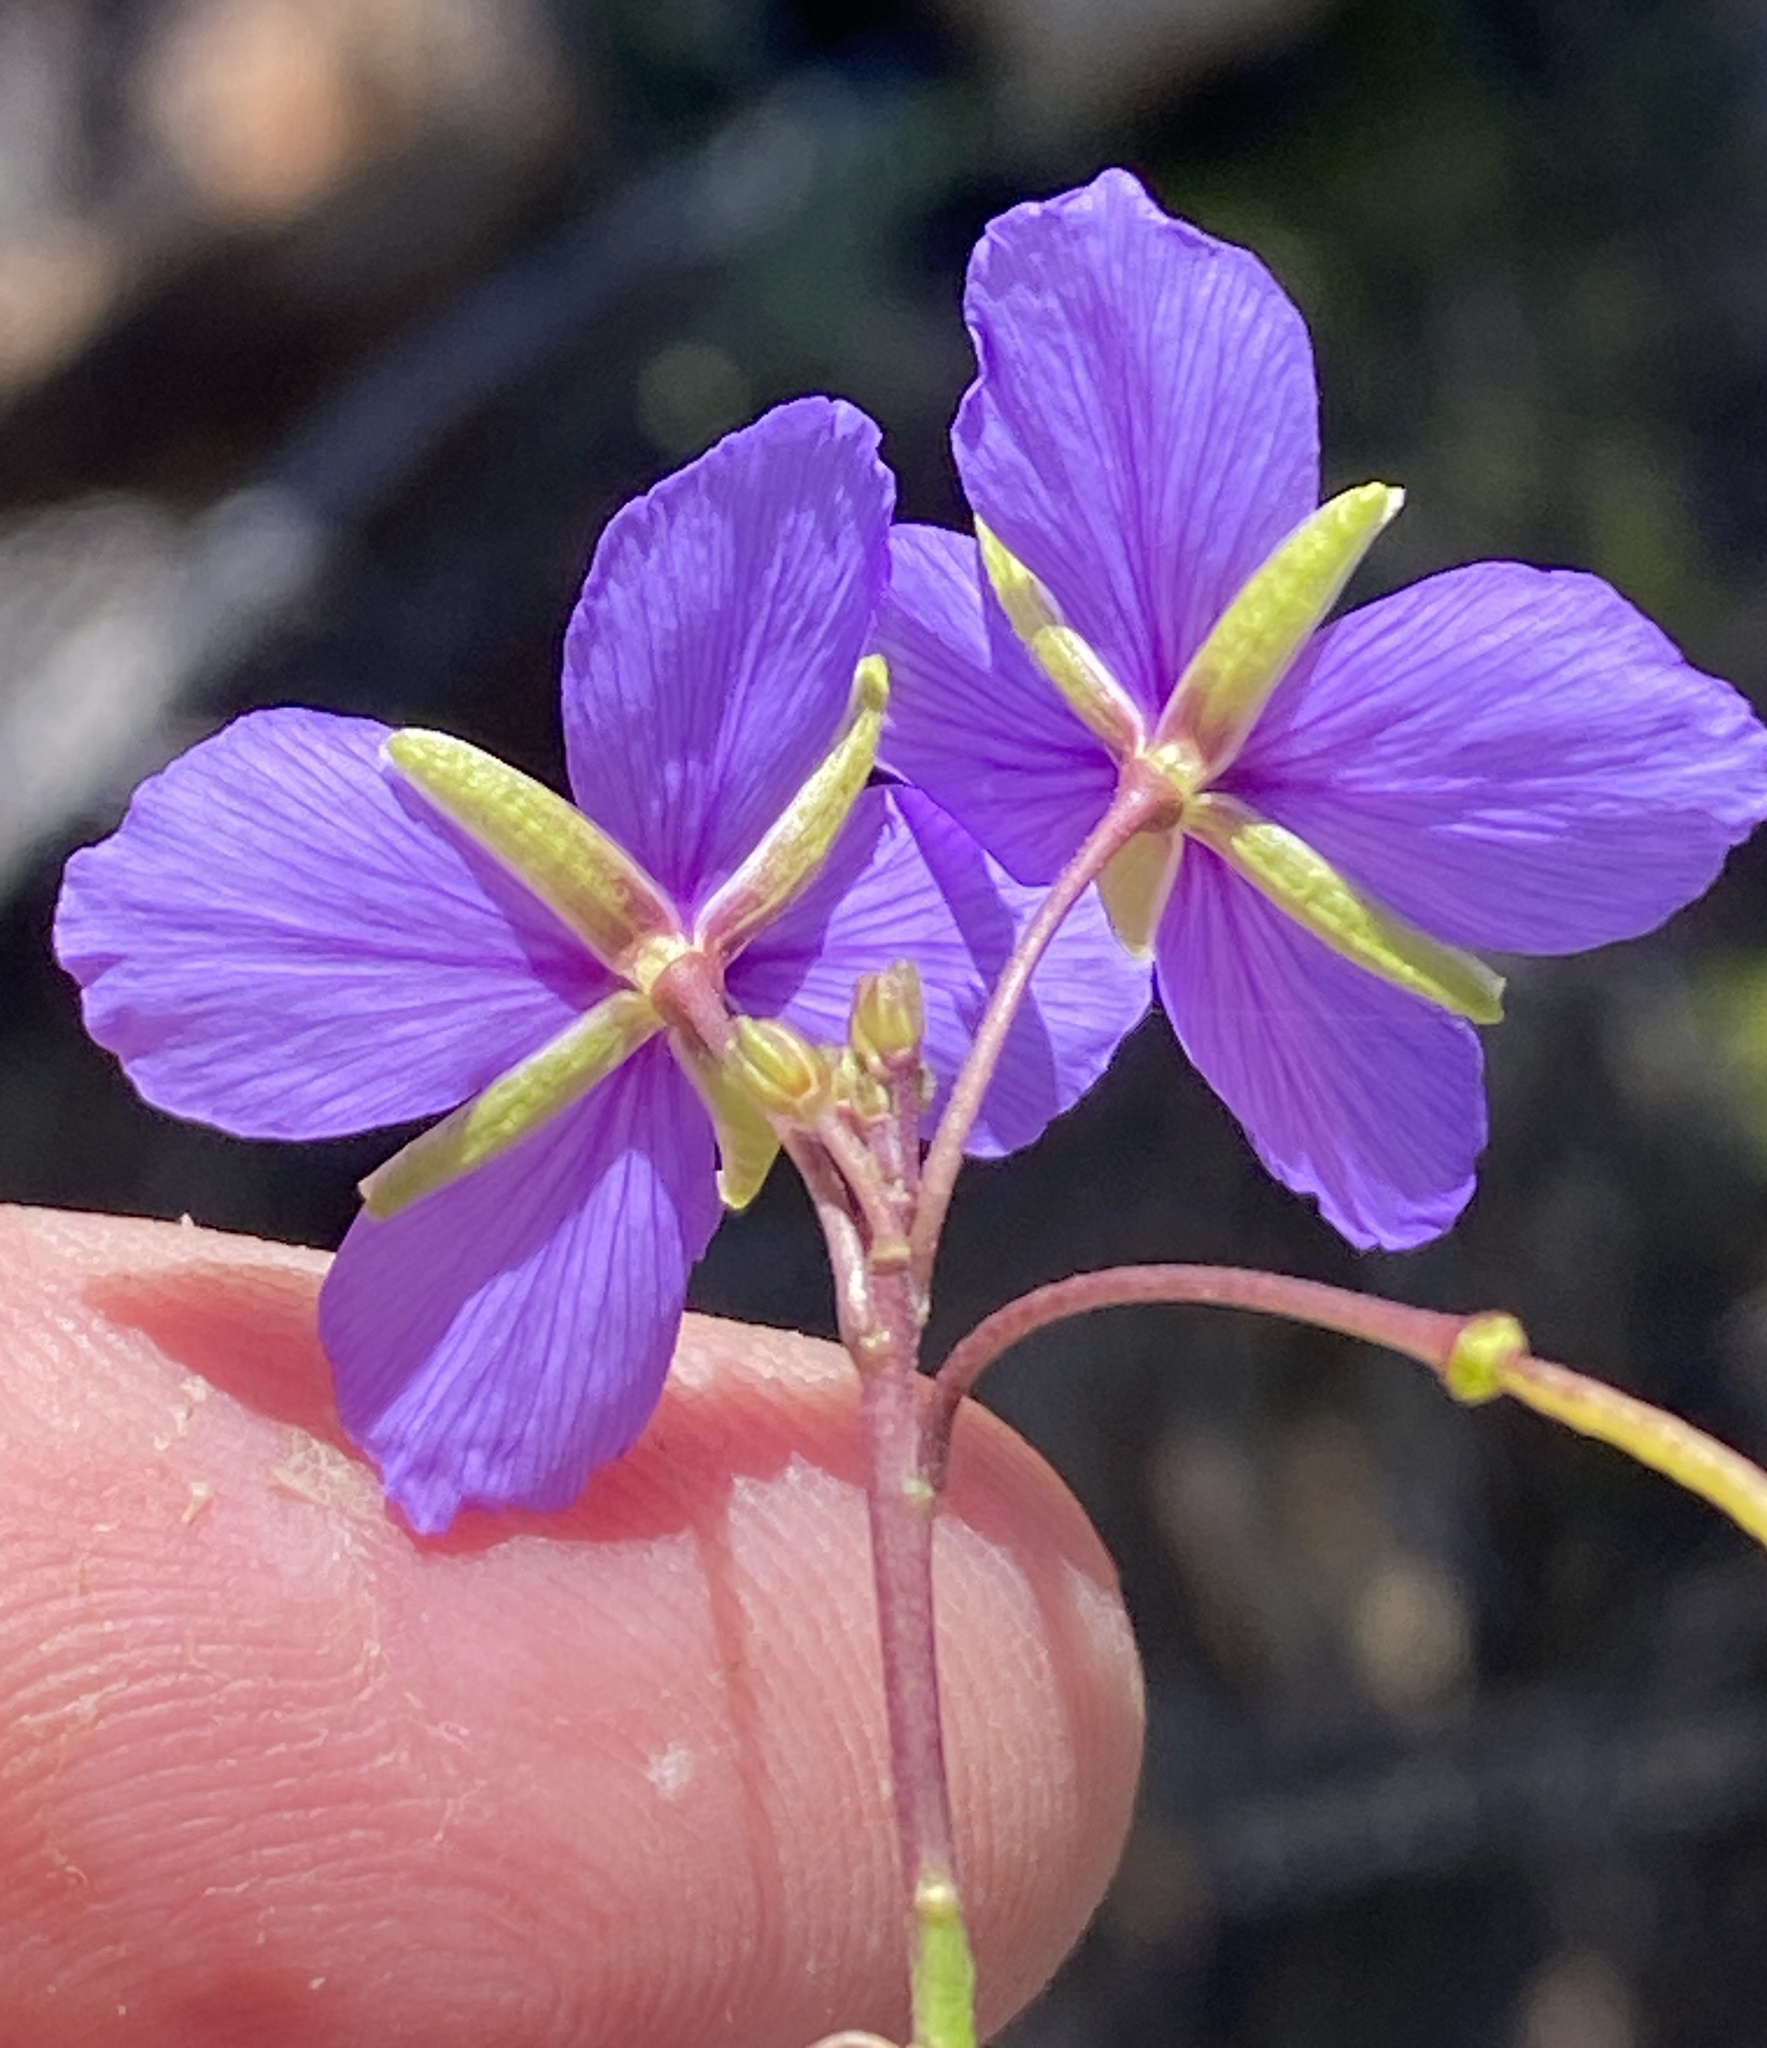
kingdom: Plantae
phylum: Tracheophyta
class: Magnoliopsida
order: Brassicales
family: Brassicaceae
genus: Heliophila
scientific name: Heliophila suavissima
